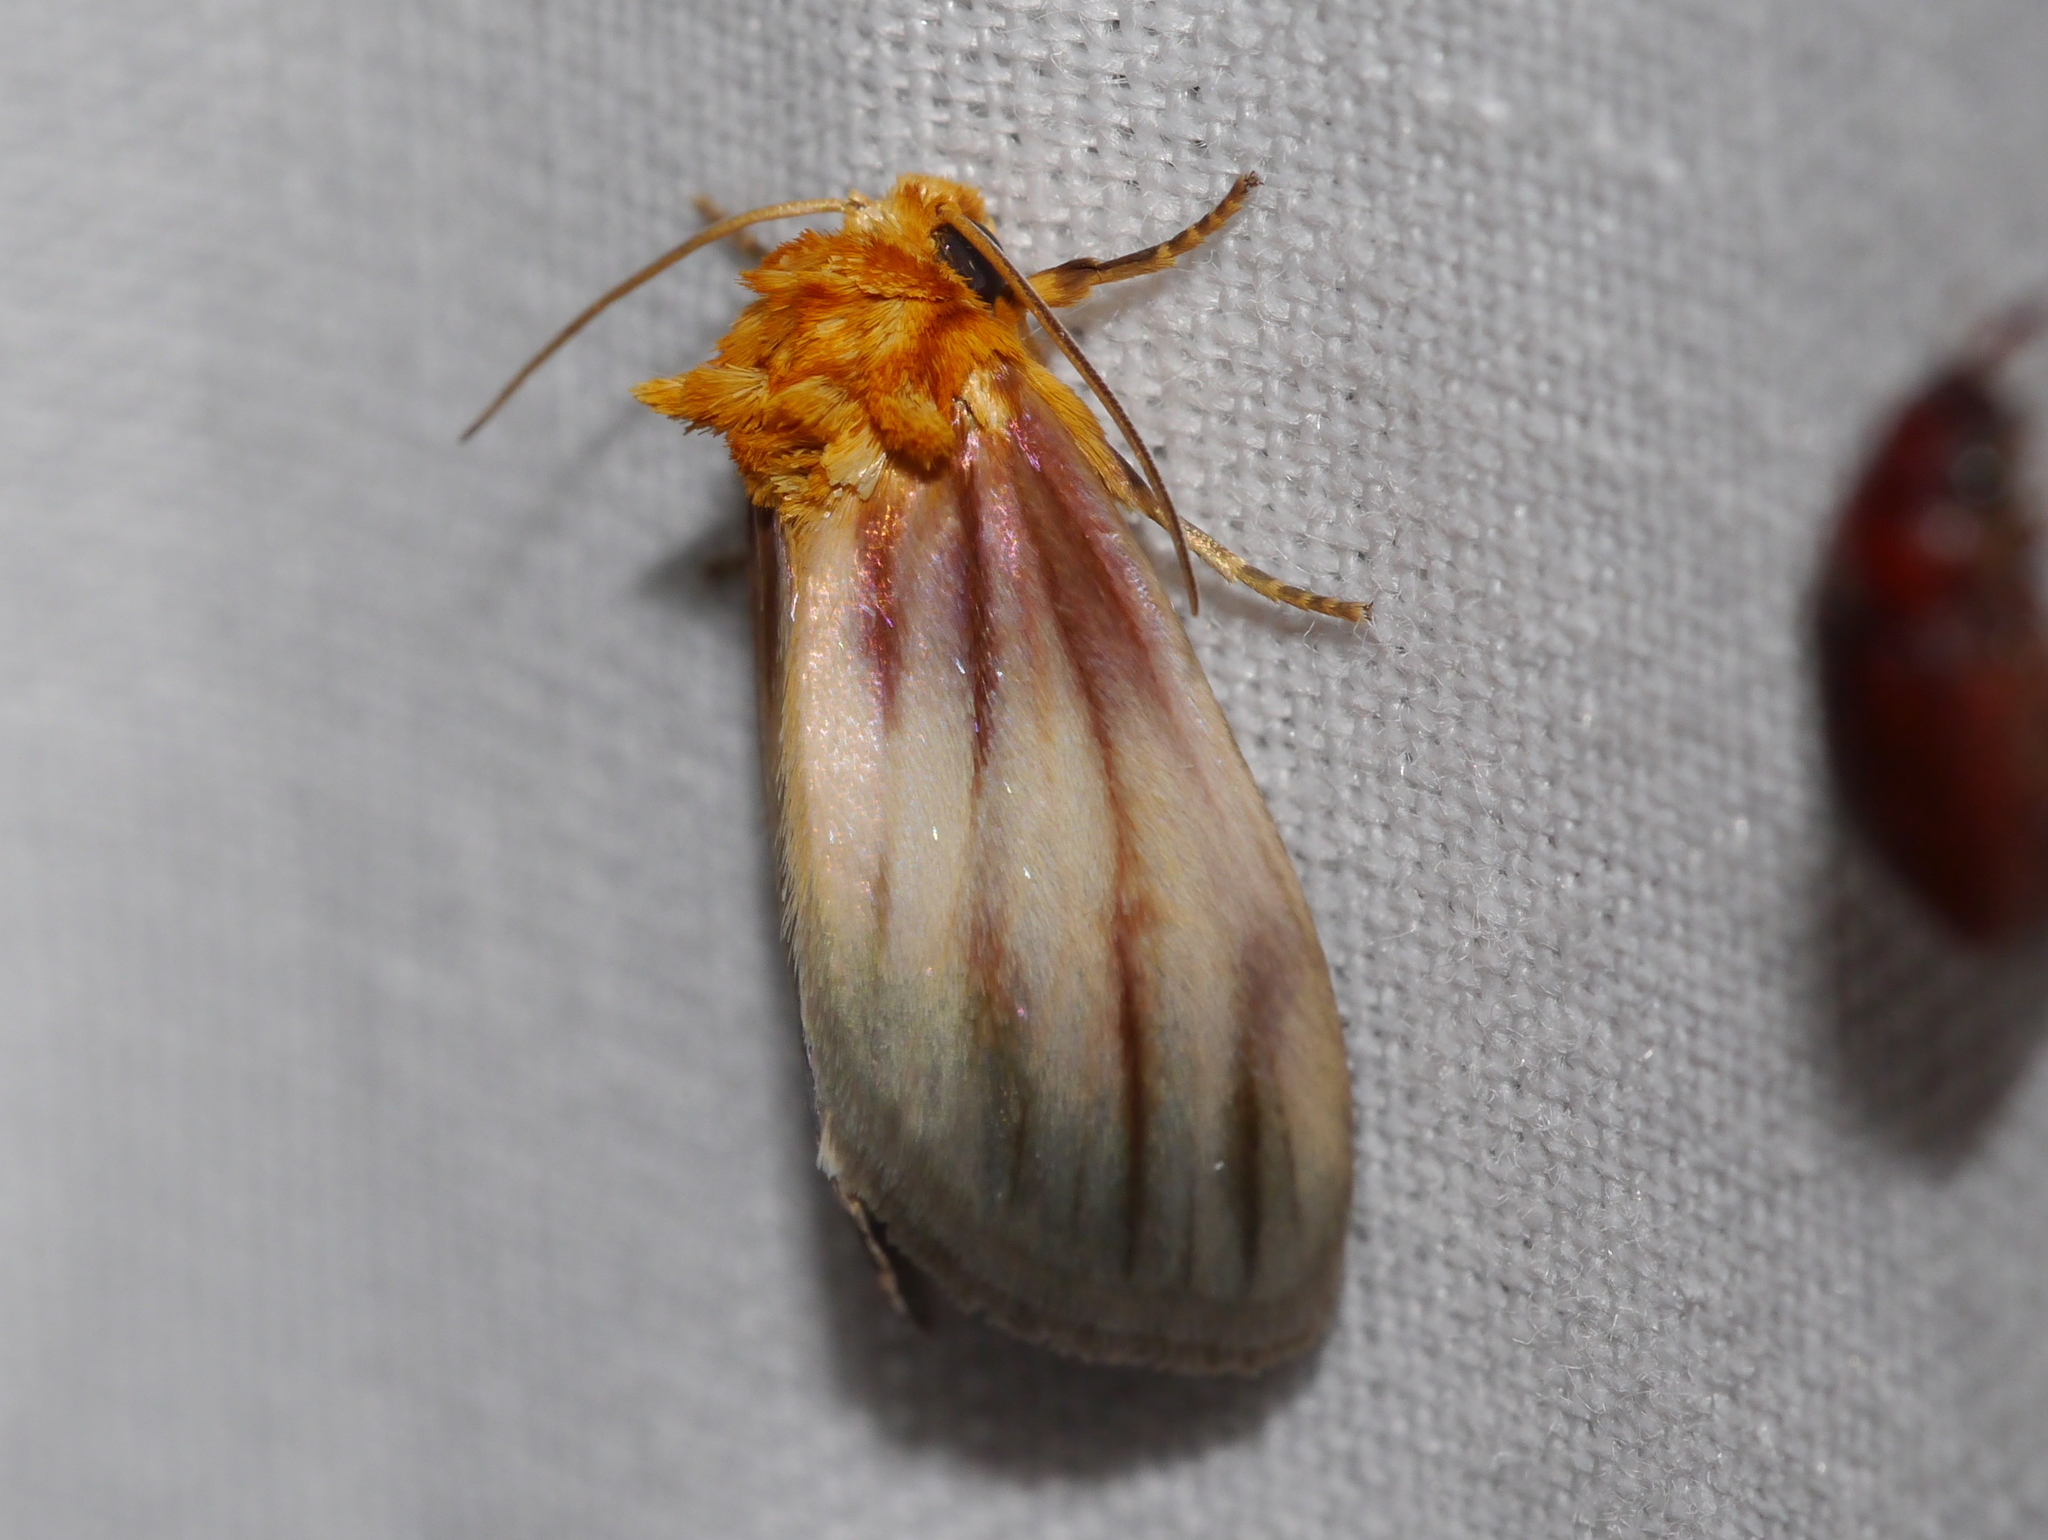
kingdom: Animalia
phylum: Arthropoda
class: Insecta
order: Lepidoptera
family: Noctuidae
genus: Antaplaga
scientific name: Antaplaga plesioglauca
